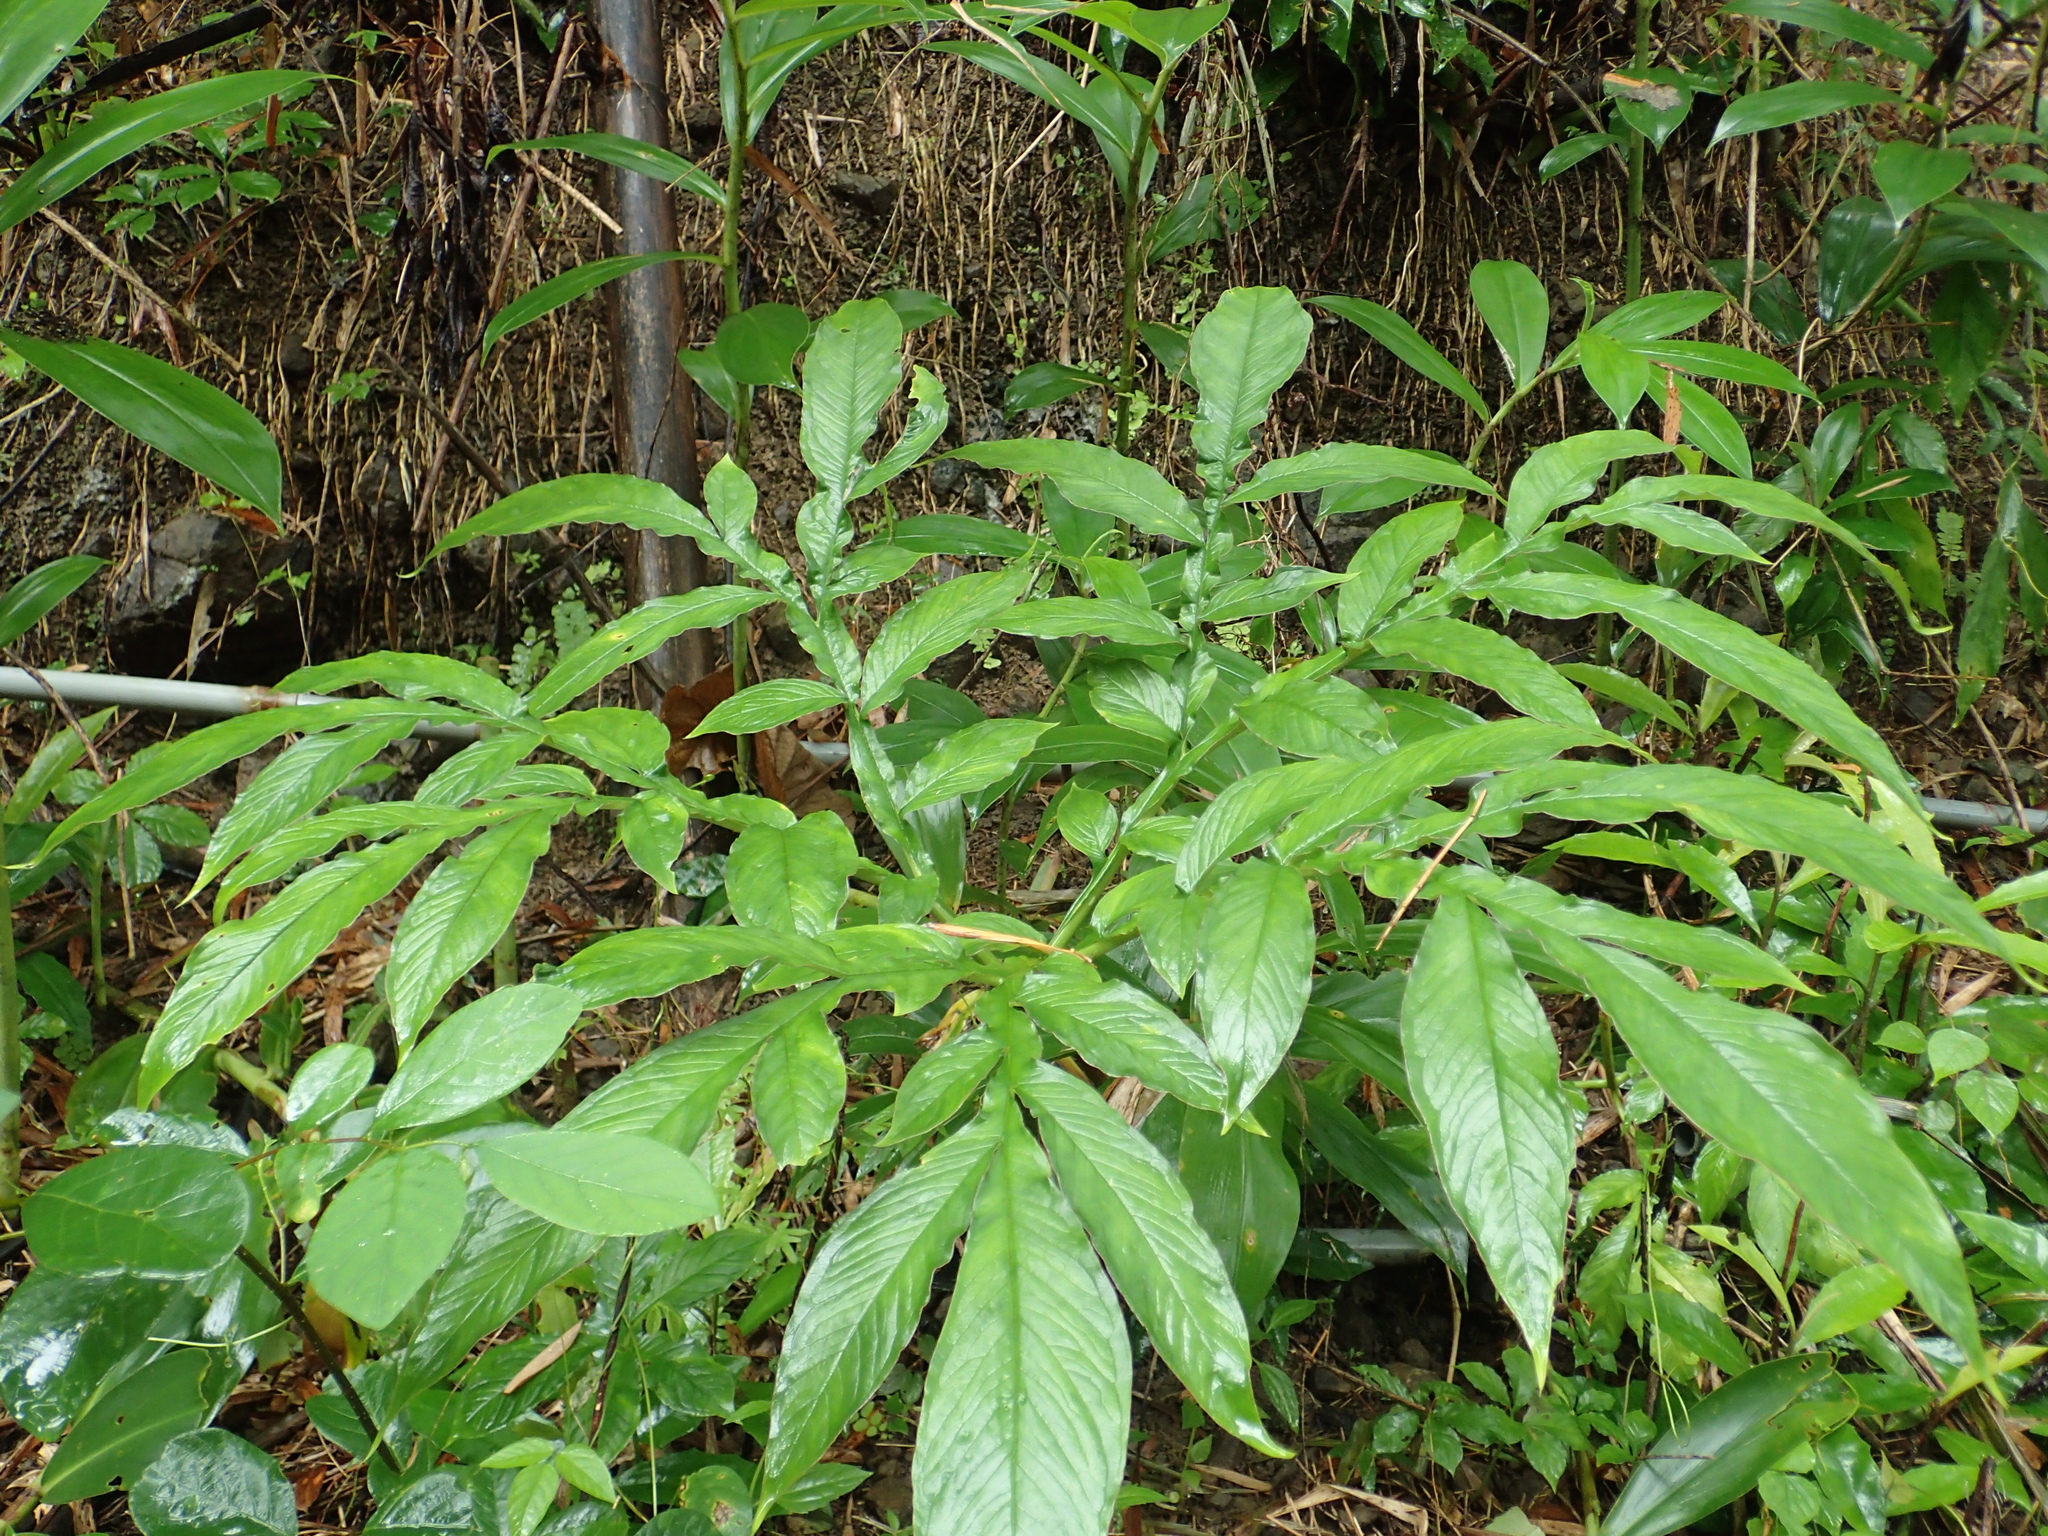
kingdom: Plantae
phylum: Tracheophyta
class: Liliopsida
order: Alismatales
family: Araceae
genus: Amorphophallus
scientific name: Amorphophallus henryi
